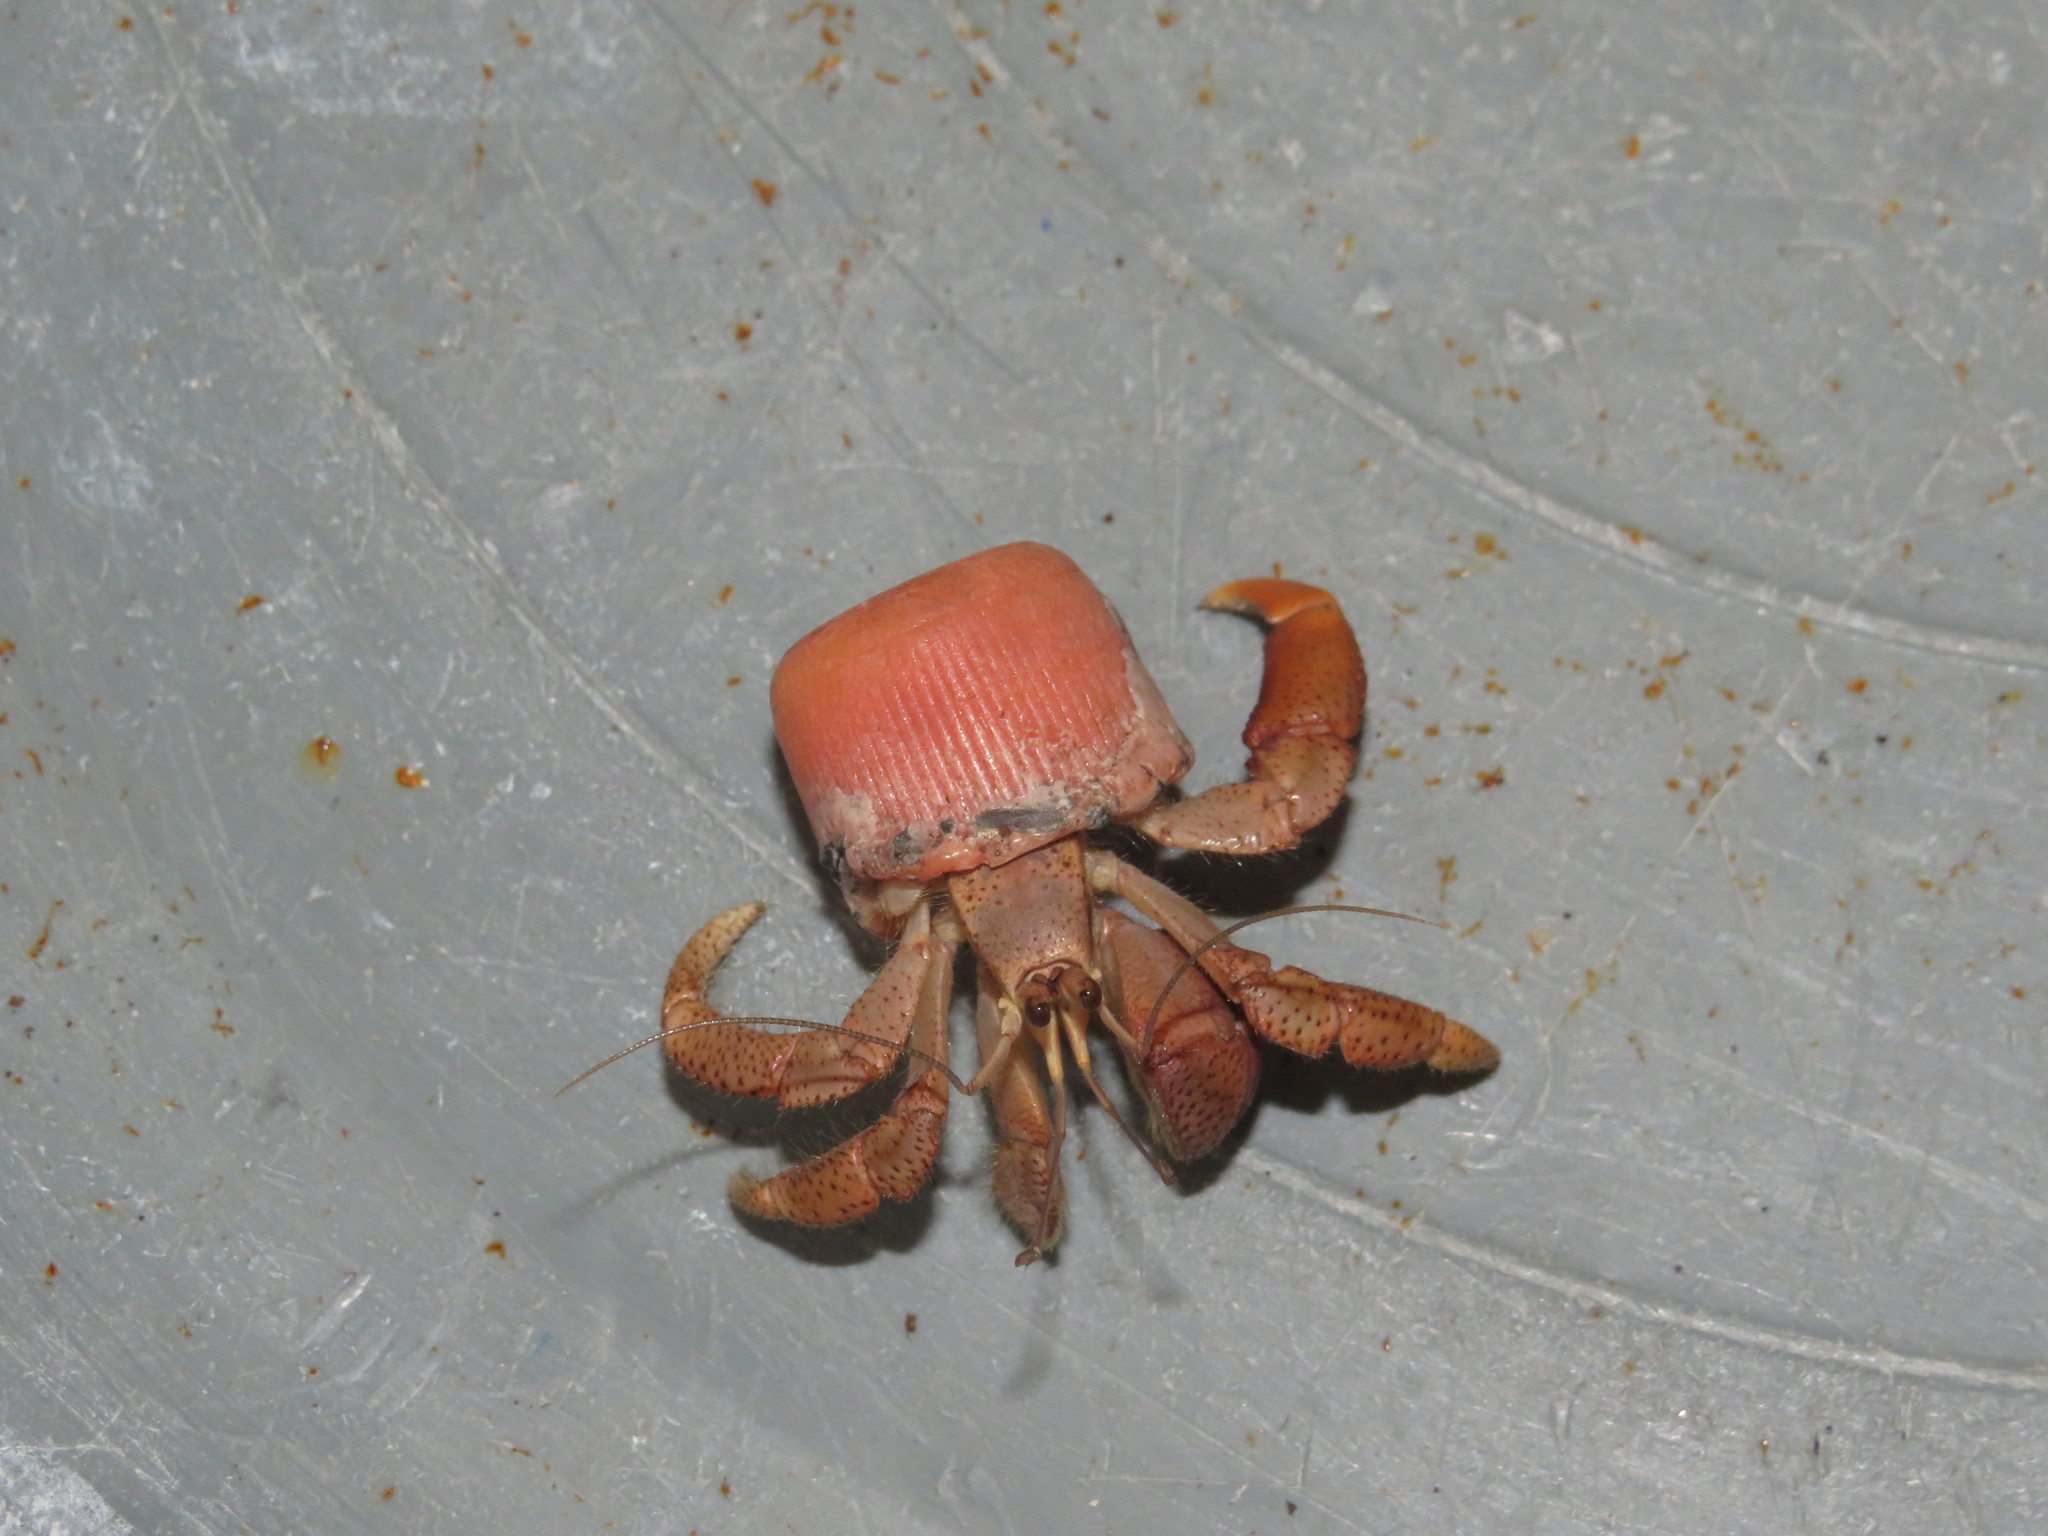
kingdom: Animalia
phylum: Arthropoda
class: Malacostraca
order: Decapoda
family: Coenobitidae
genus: Coenobita
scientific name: Coenobita clypeatus
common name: Caribbean hermit crab
